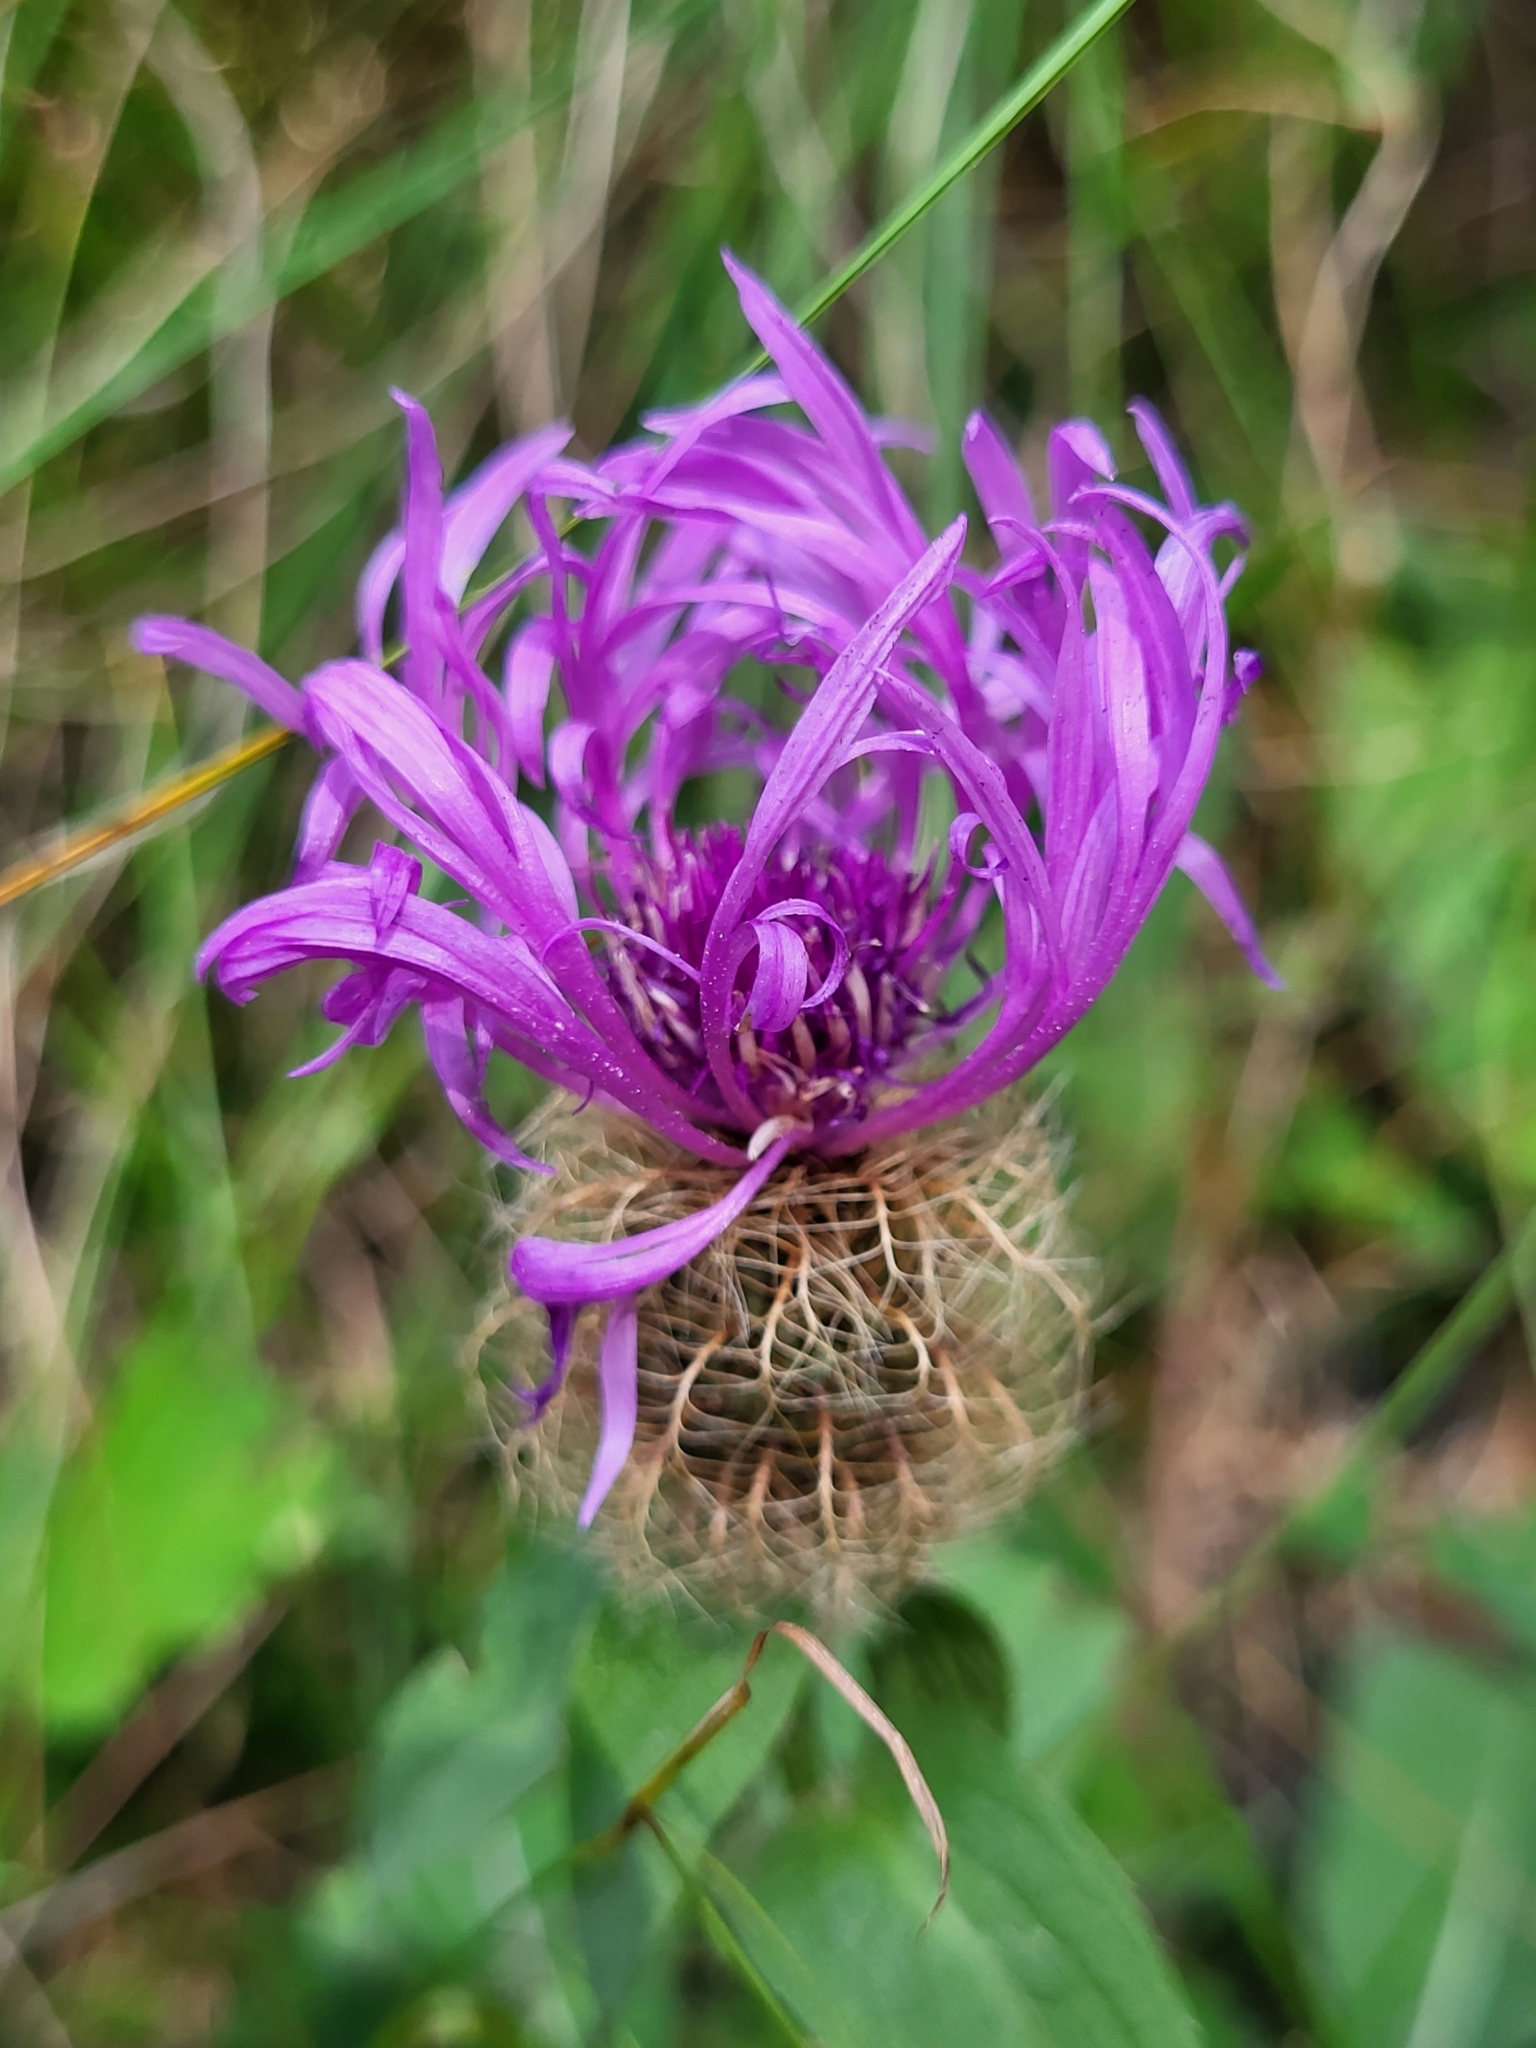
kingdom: Plantae
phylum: Tracheophyta
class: Magnoliopsida
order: Asterales
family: Asteraceae
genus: Centaurea
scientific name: Centaurea nervosa
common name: Singleflower knapweed
